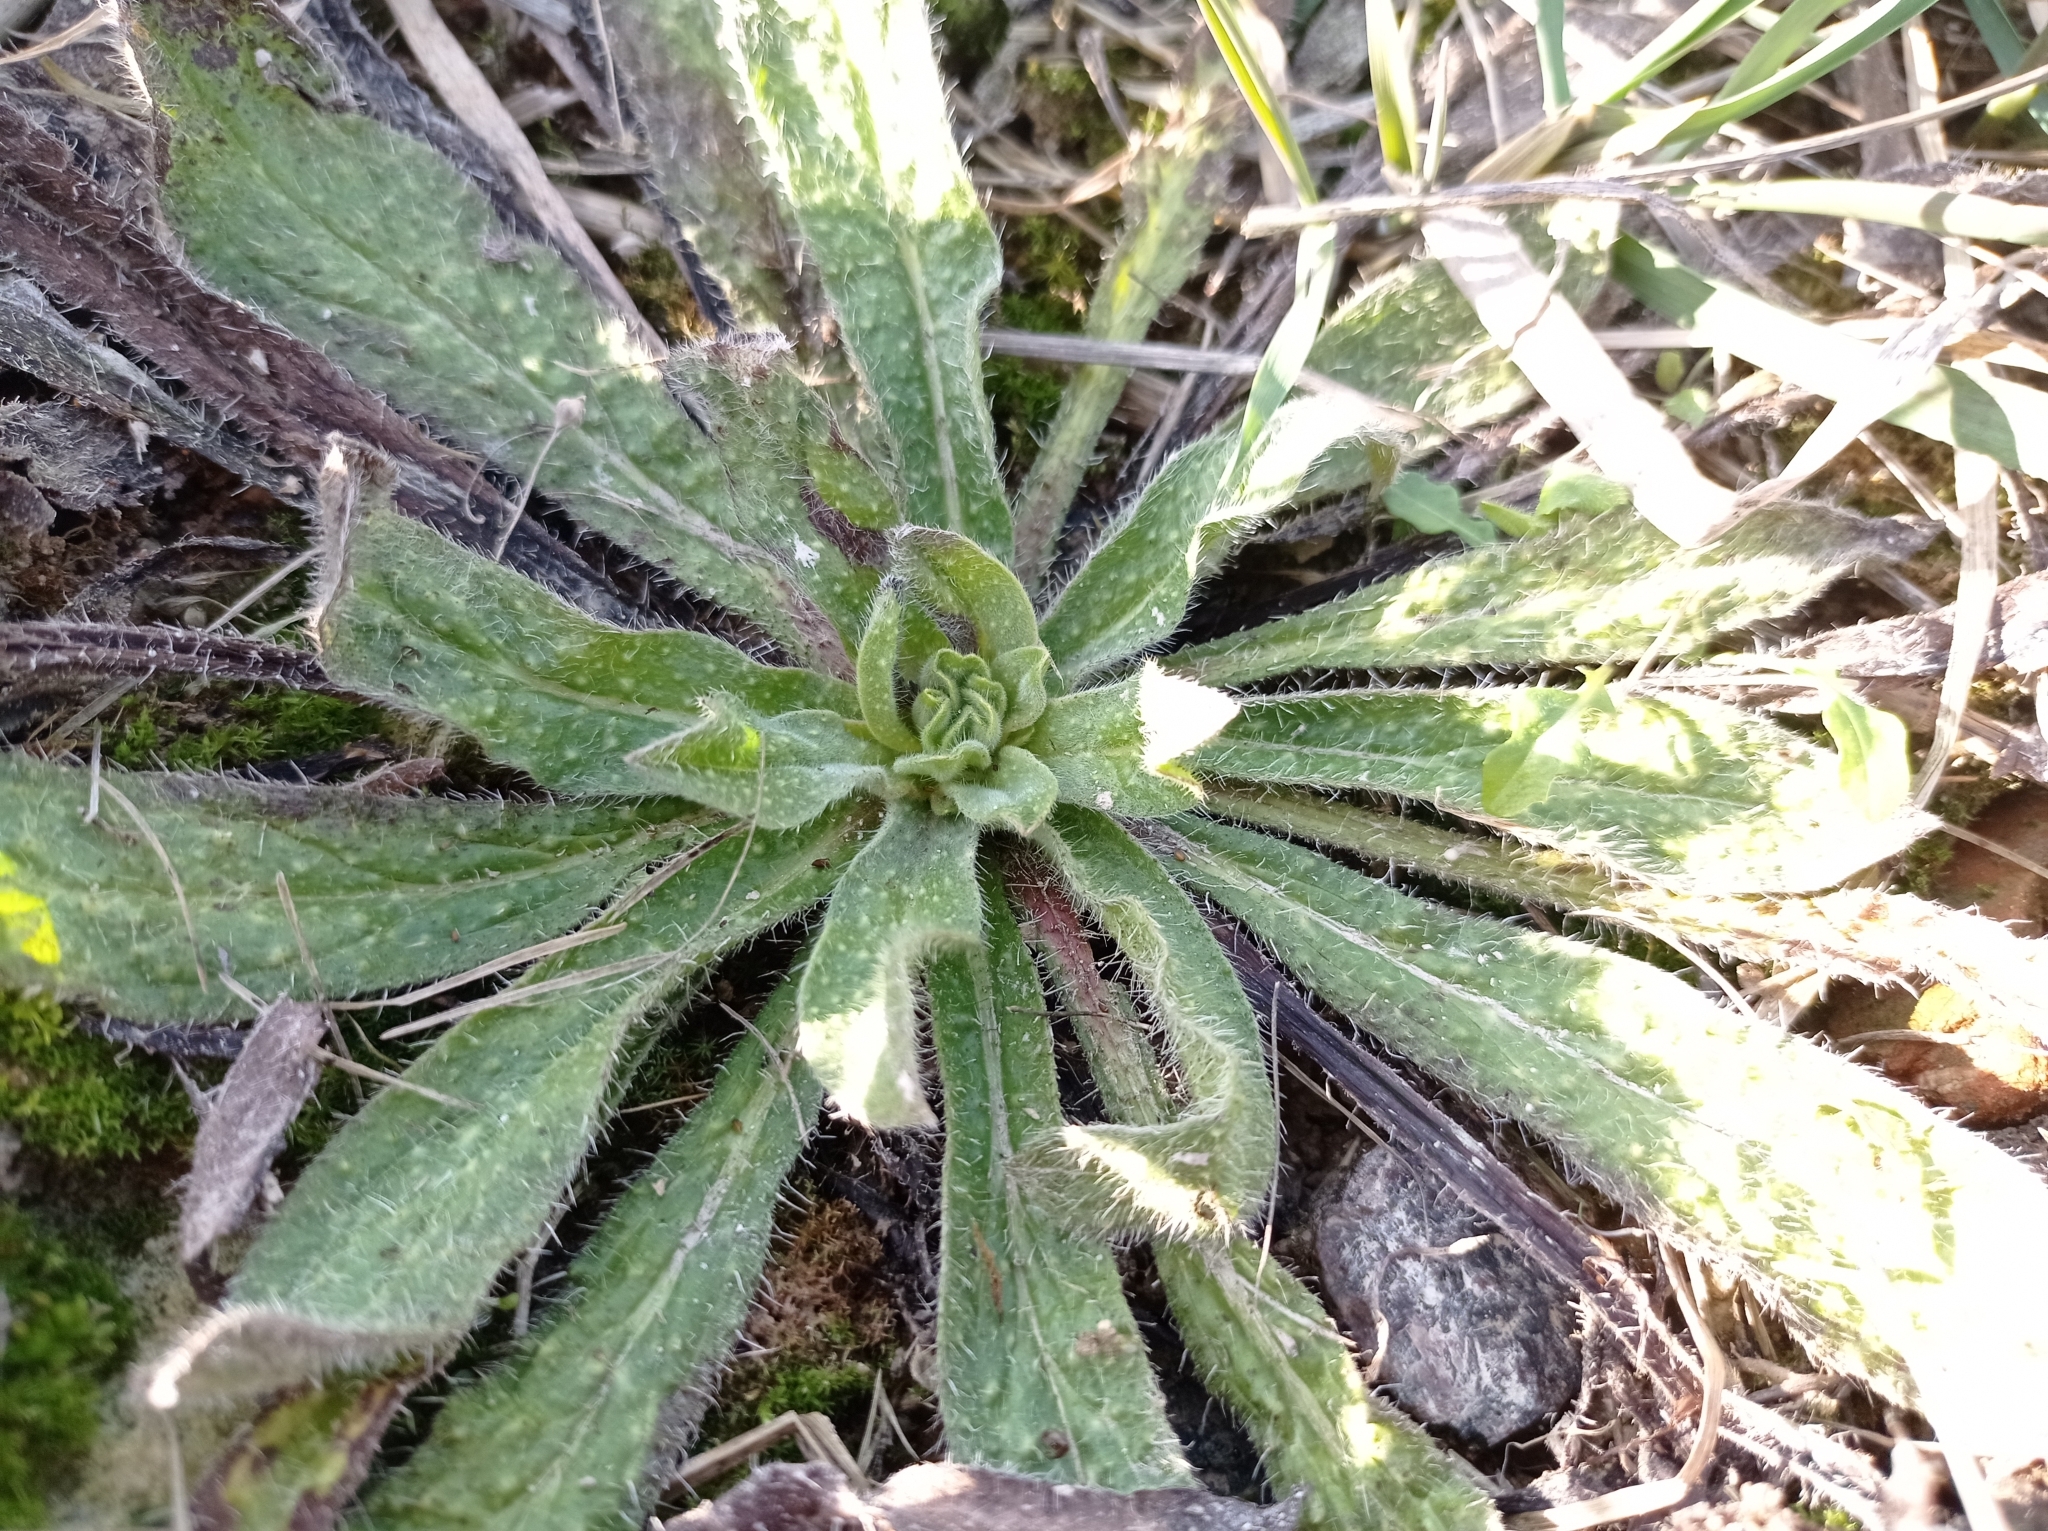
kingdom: Plantae
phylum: Tracheophyta
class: Magnoliopsida
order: Boraginales
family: Boraginaceae
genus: Echium
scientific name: Echium vulgare
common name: Common viper's bugloss
